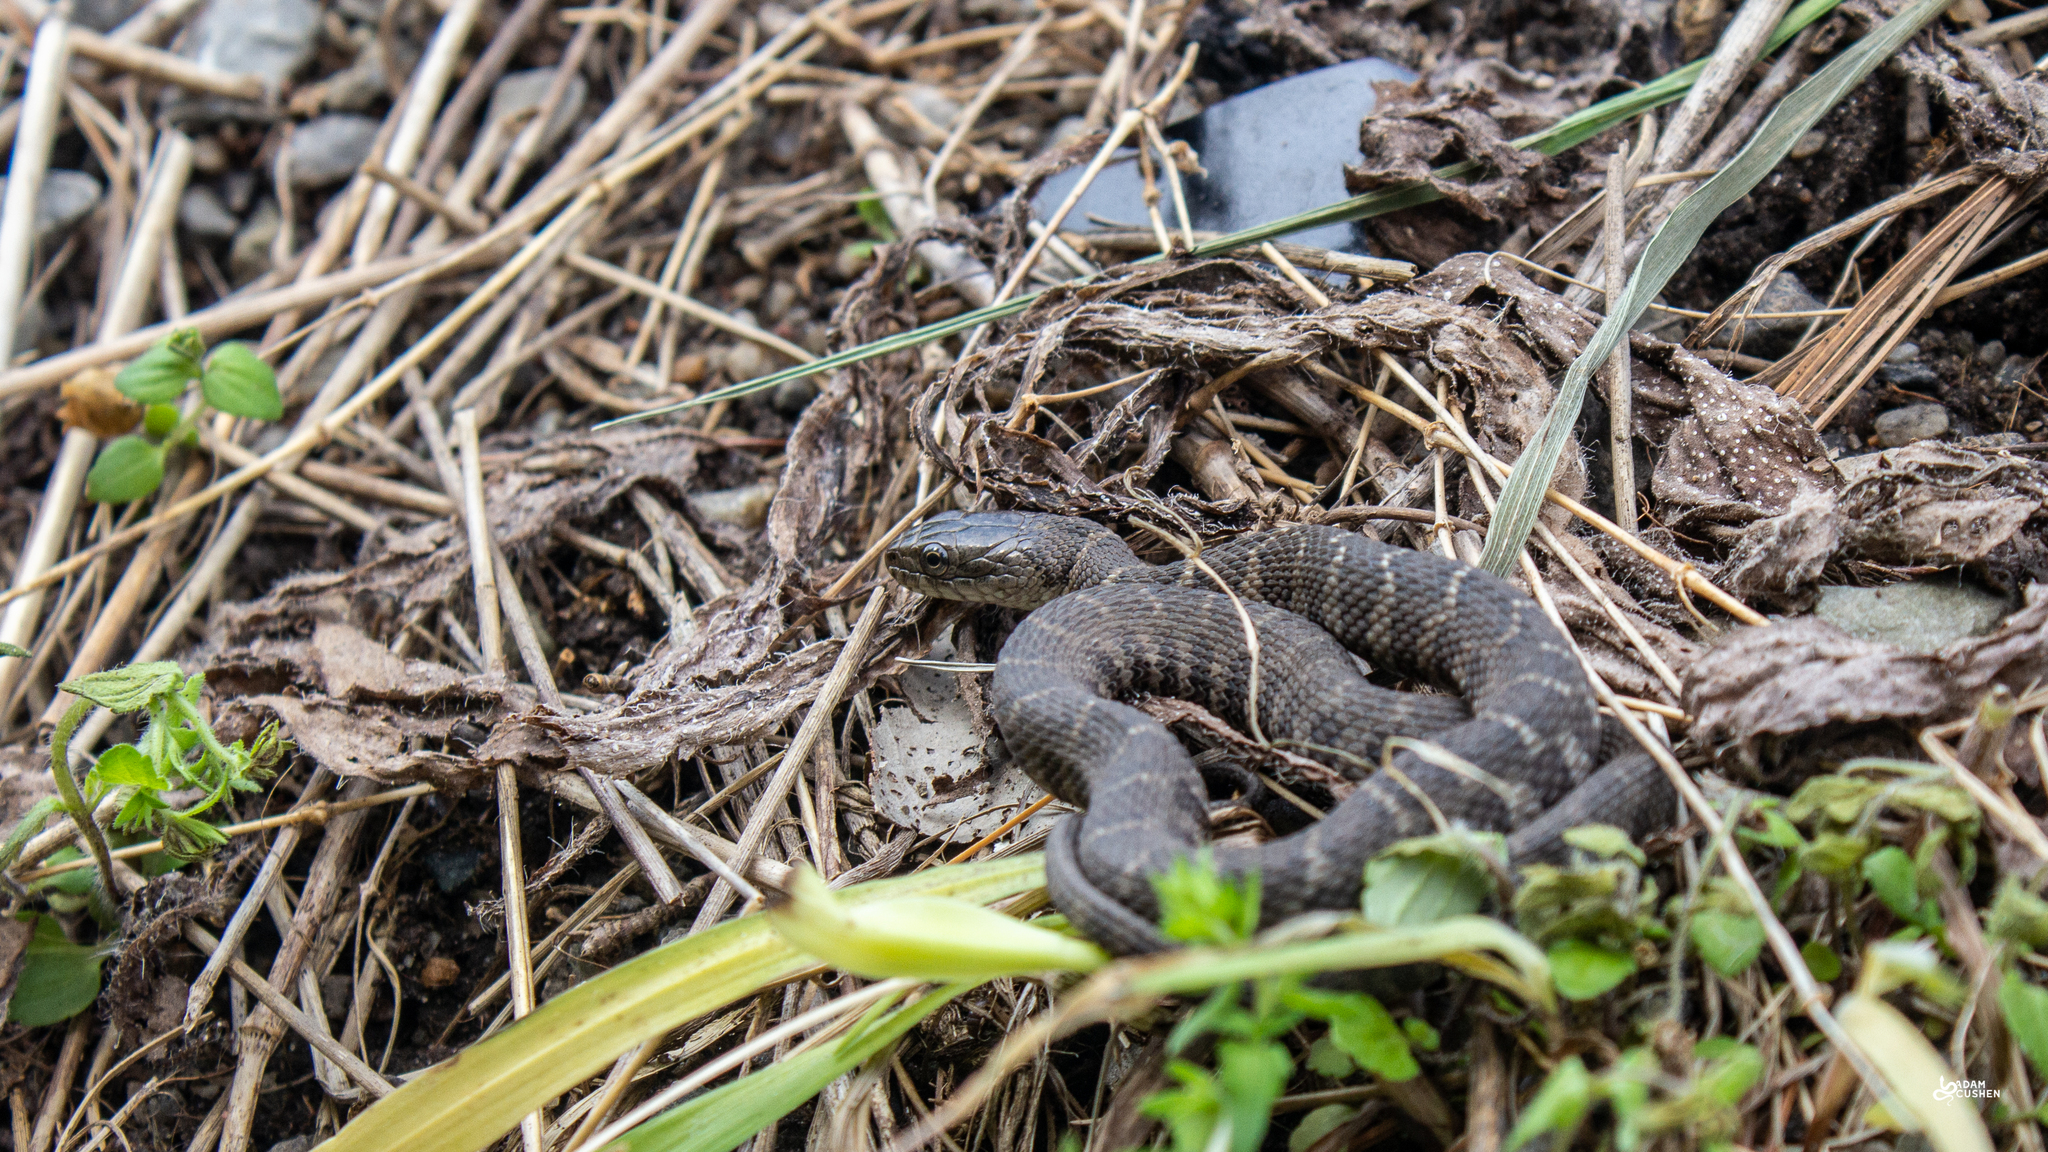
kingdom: Animalia
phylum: Chordata
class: Squamata
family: Colubridae
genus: Nerodia
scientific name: Nerodia sipedon
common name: Northern water snake
